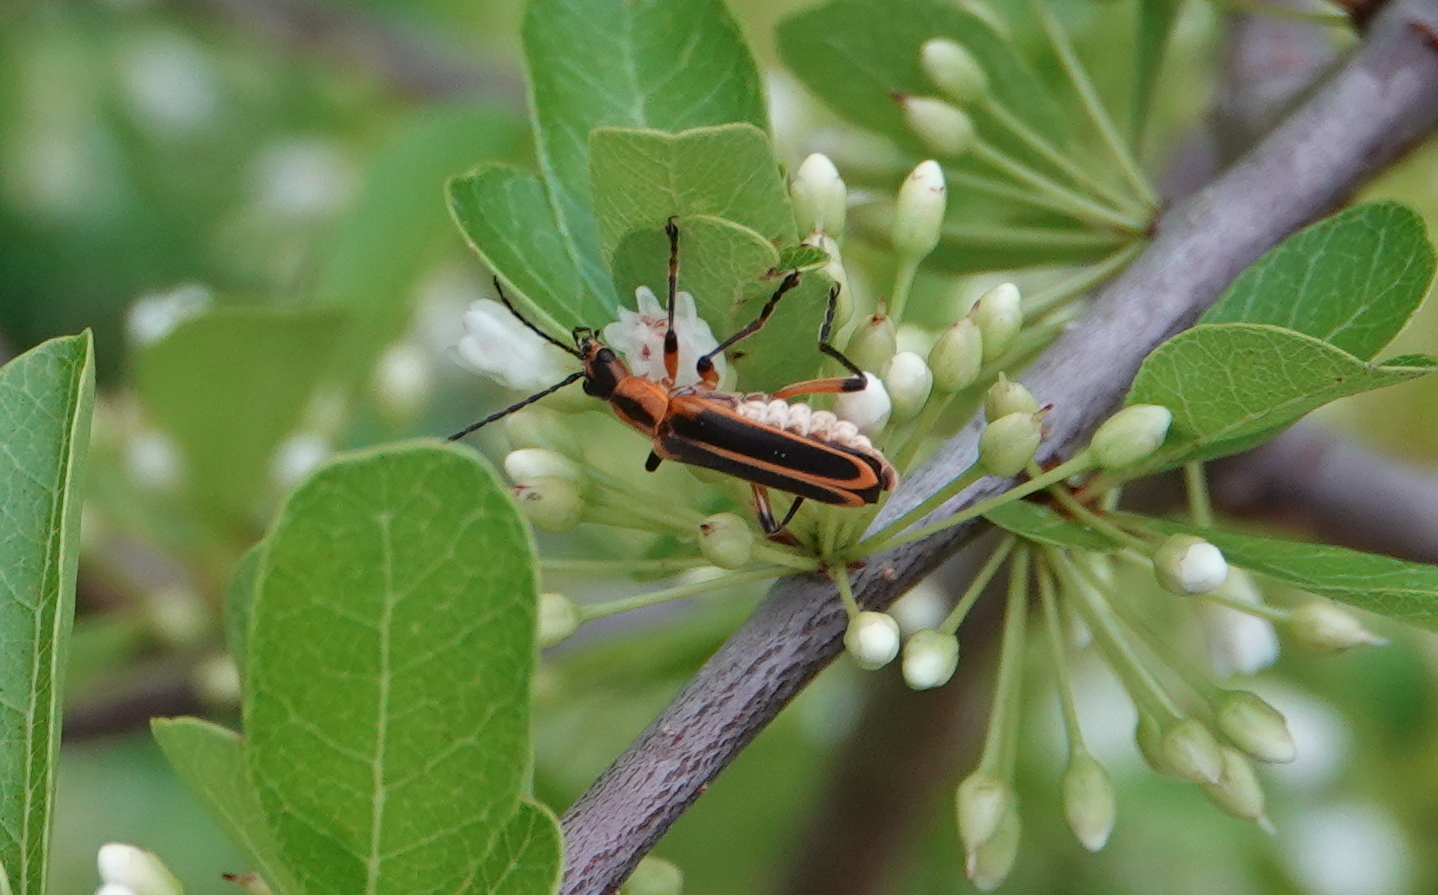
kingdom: Animalia
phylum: Arthropoda
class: Insecta
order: Coleoptera
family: Cantharidae
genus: Chauliognathus
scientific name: Chauliognathus marginatus
